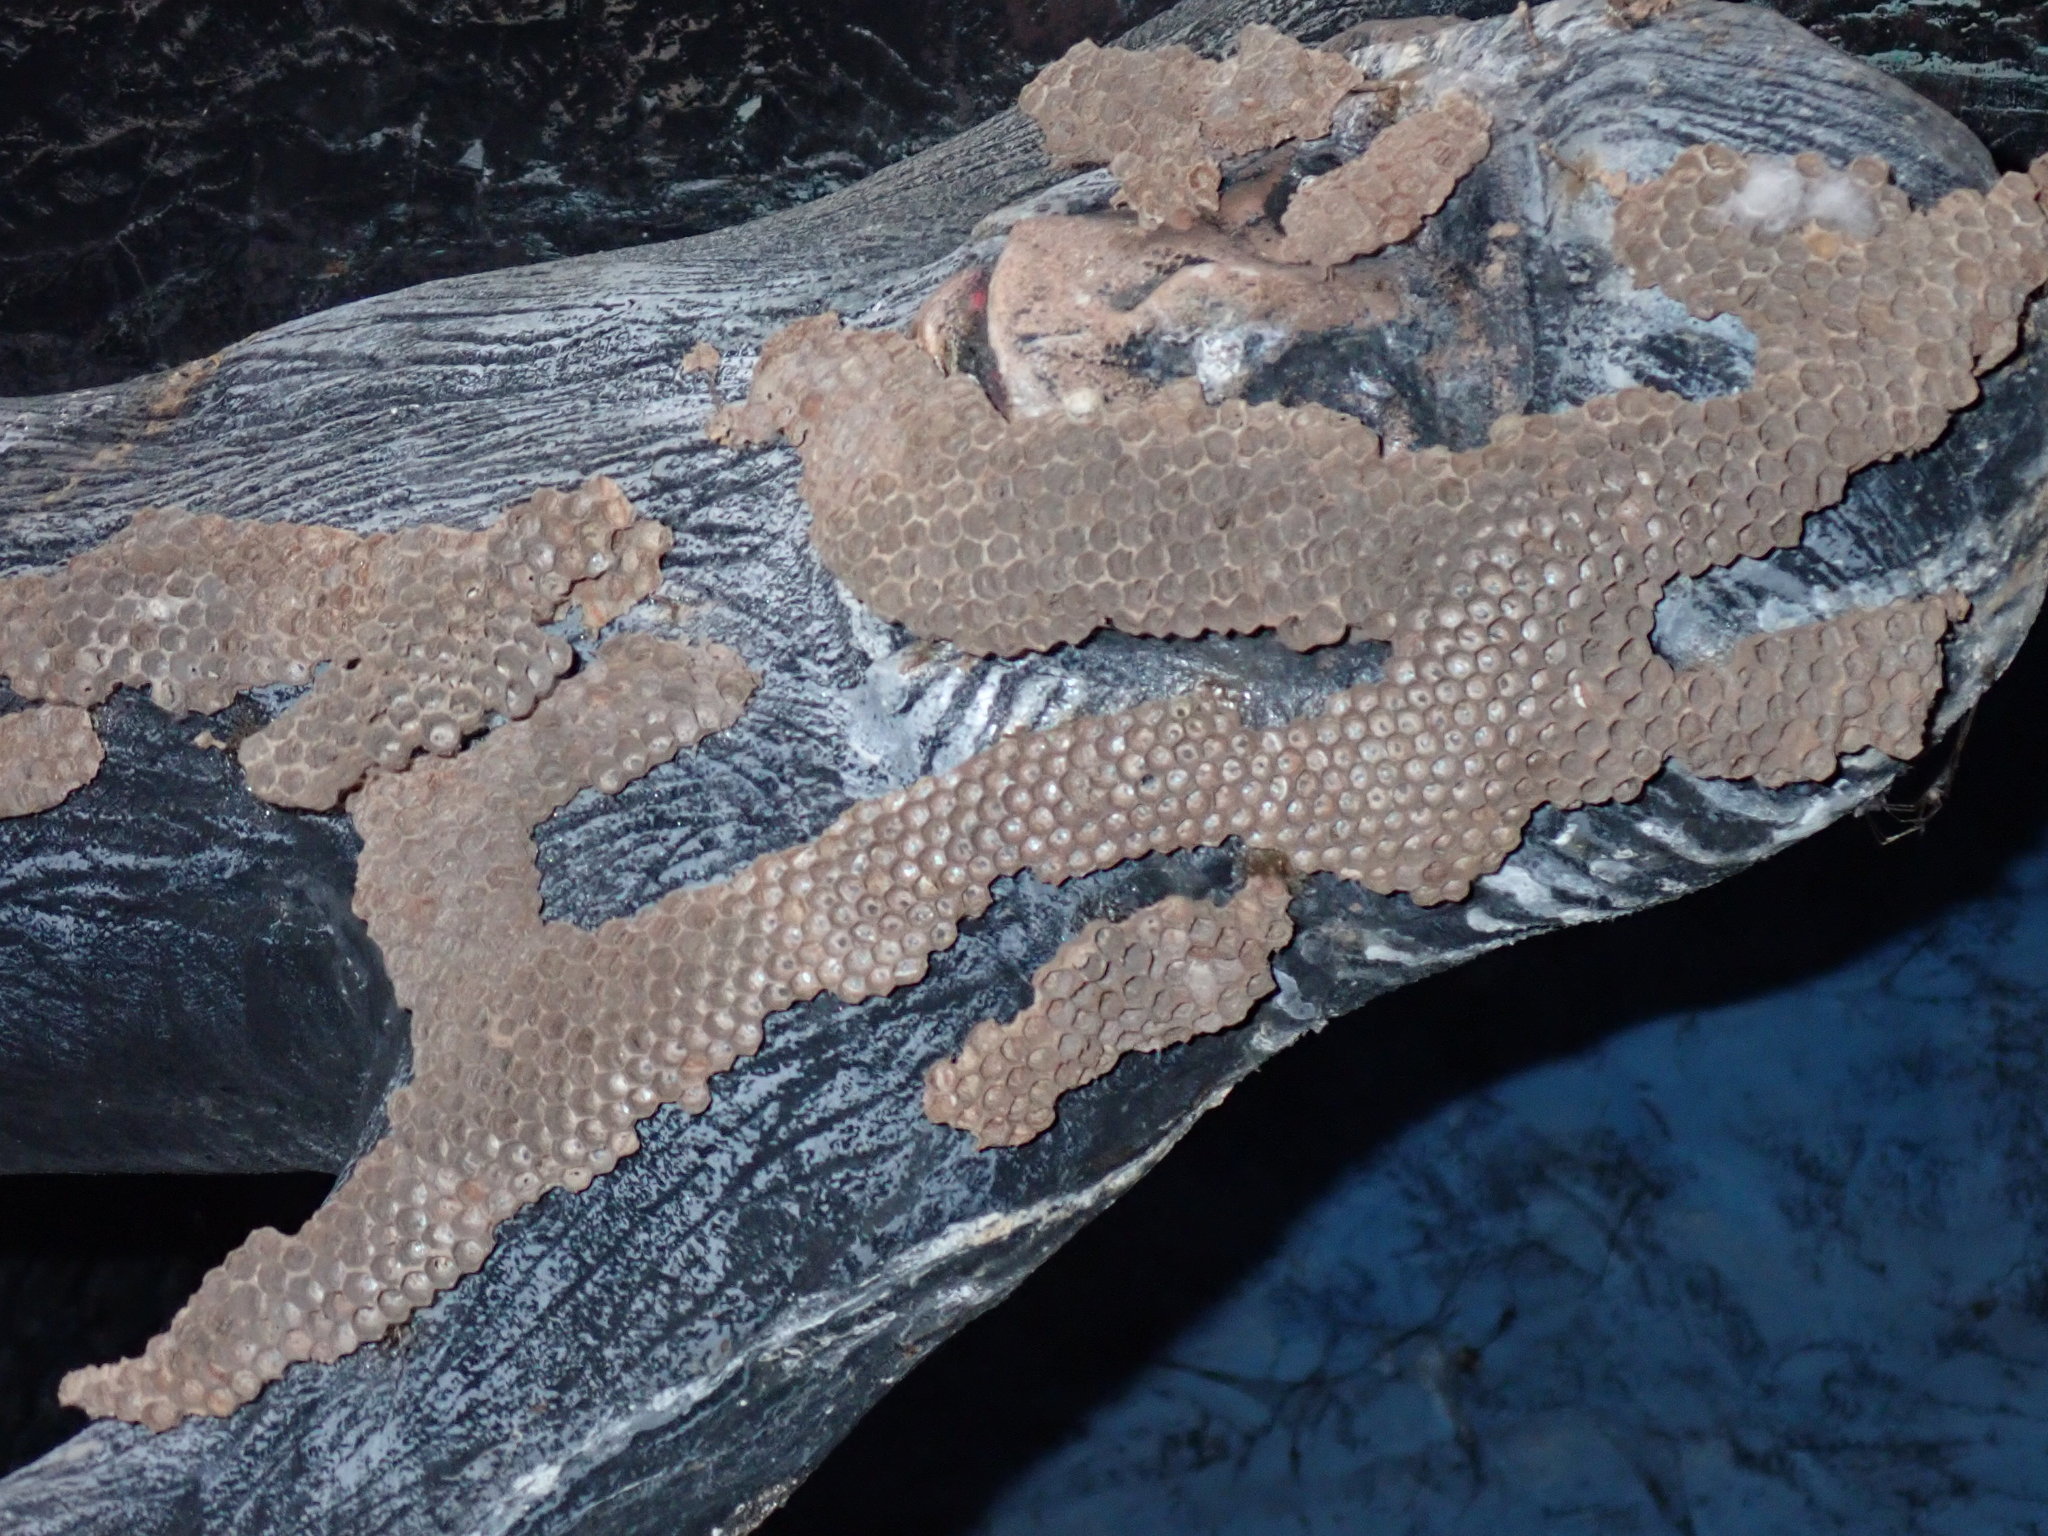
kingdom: Animalia
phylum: Arthropoda
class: Insecta
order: Hymenoptera
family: Apidae
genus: Apis
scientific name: Apis
